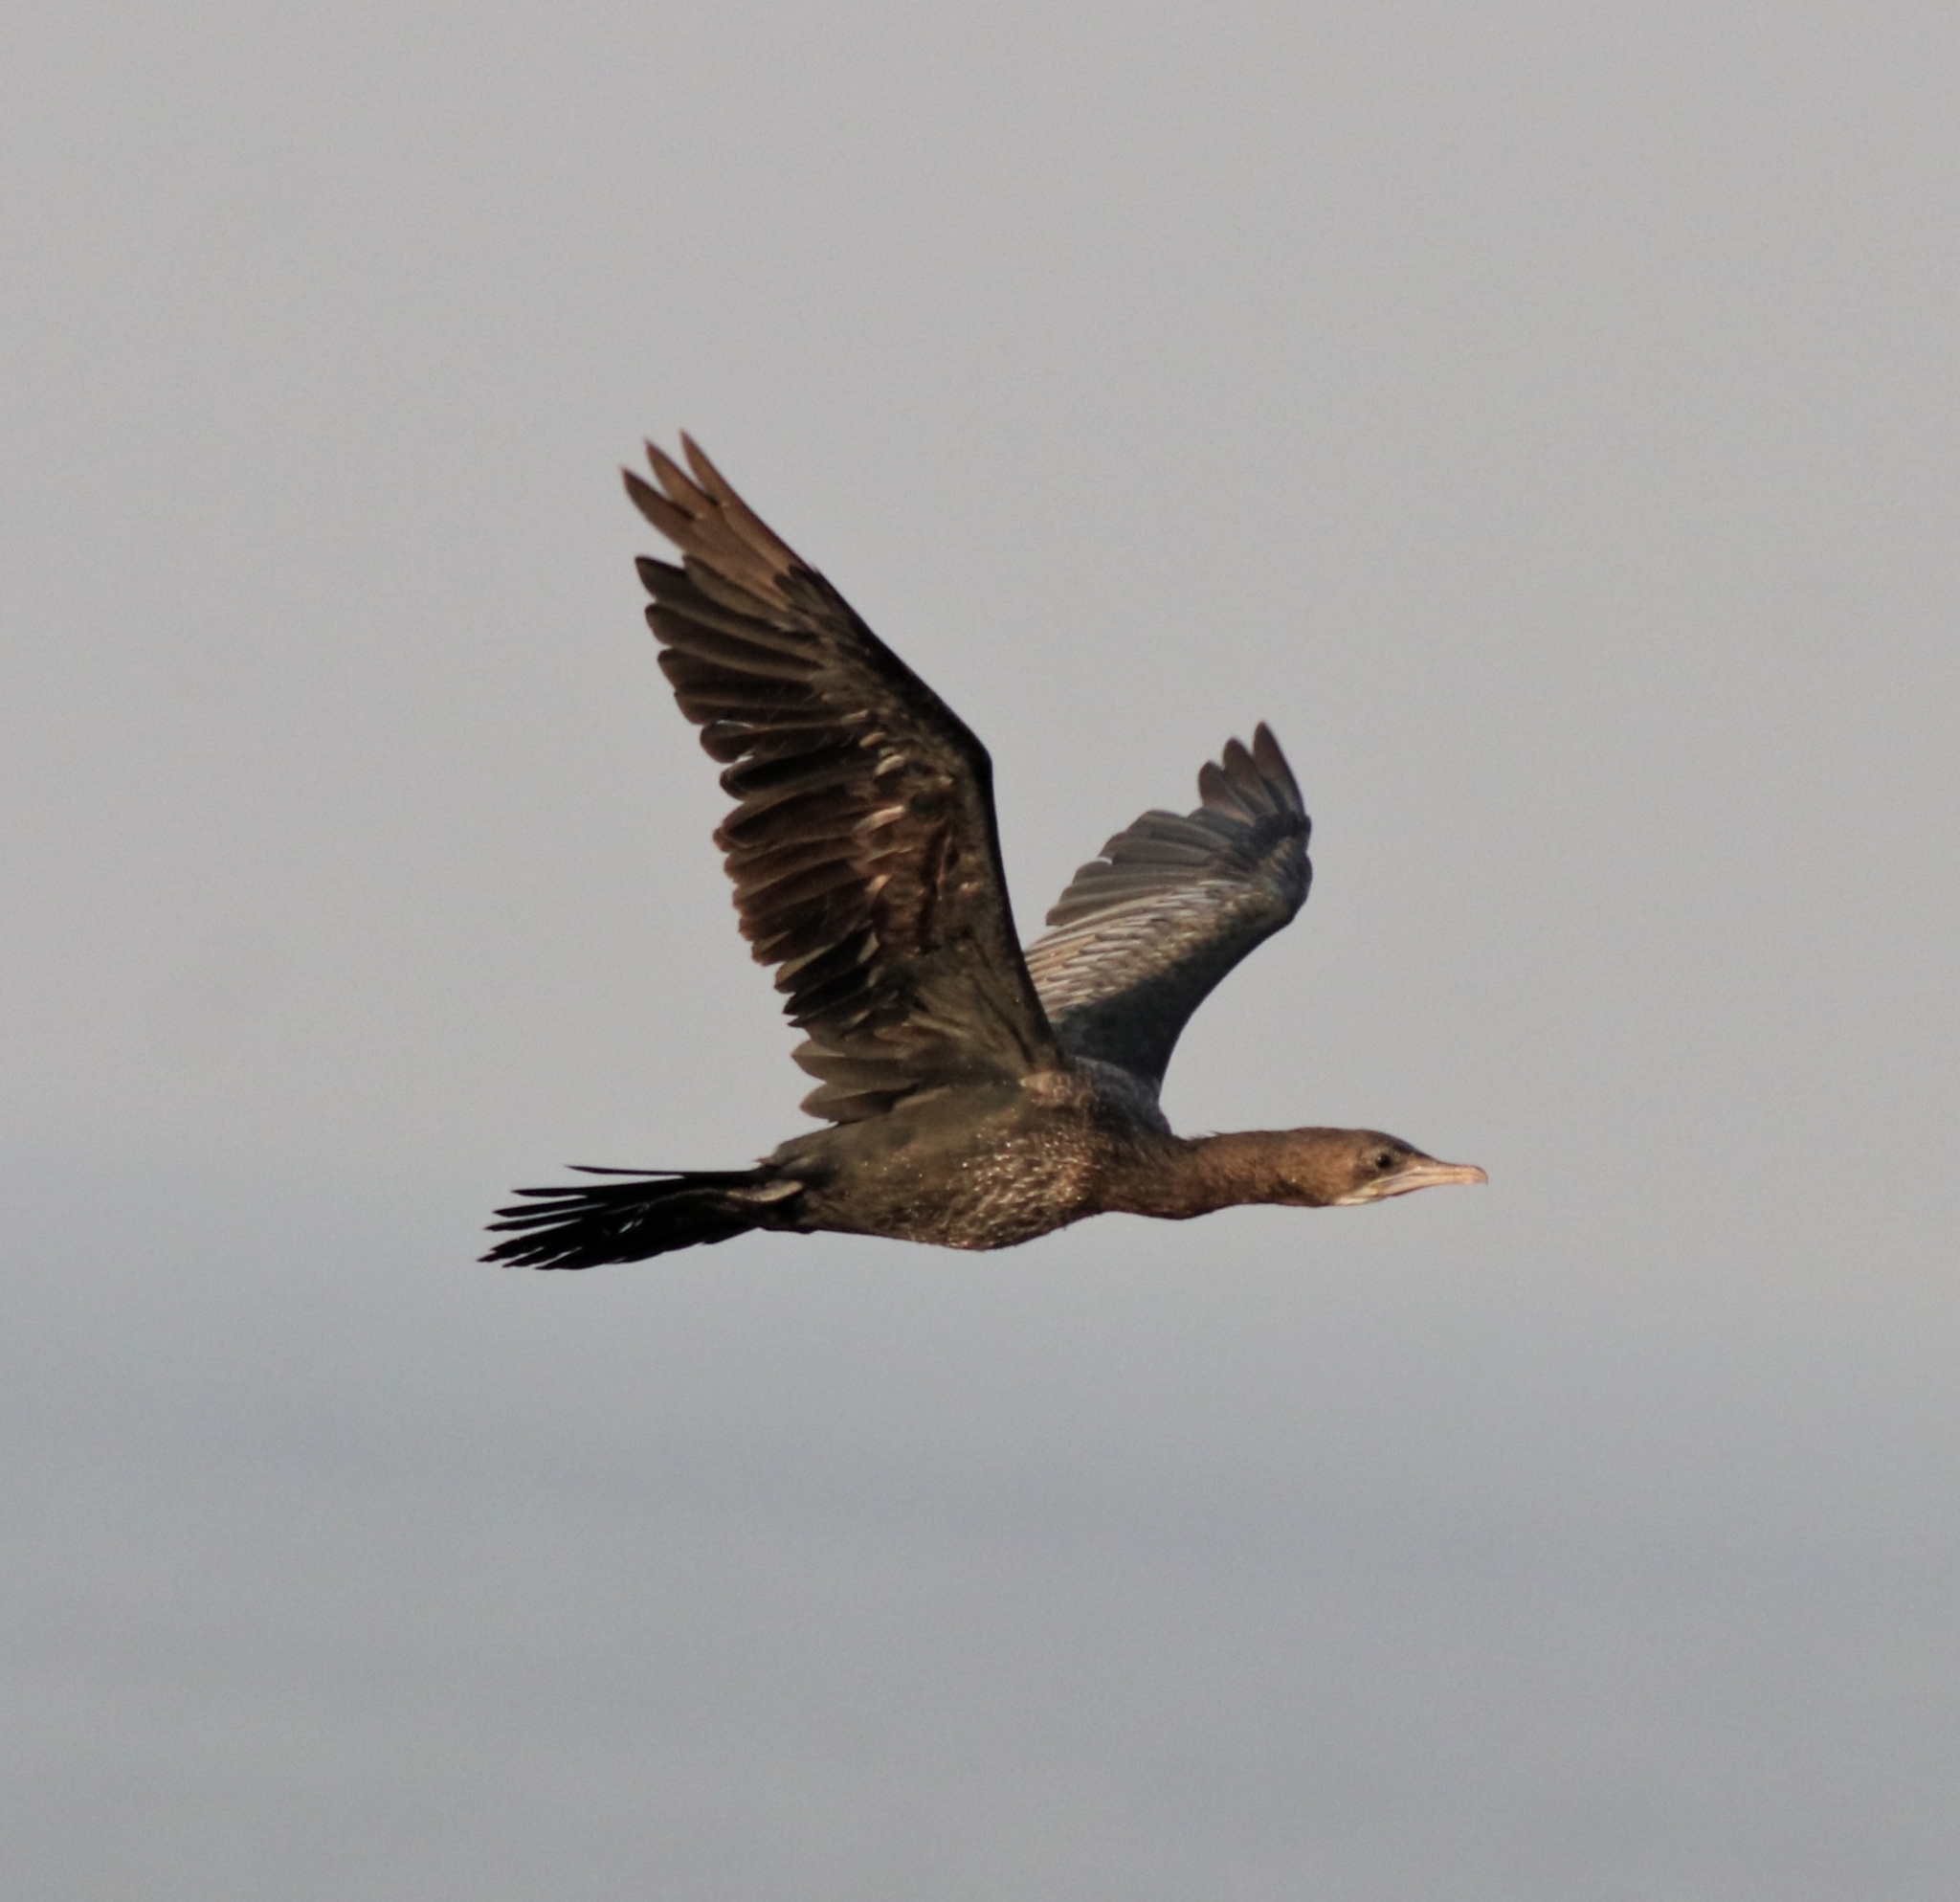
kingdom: Animalia
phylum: Chordata
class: Aves
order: Suliformes
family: Phalacrocoracidae
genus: Microcarbo
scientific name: Microcarbo niger
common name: Little cormorant
